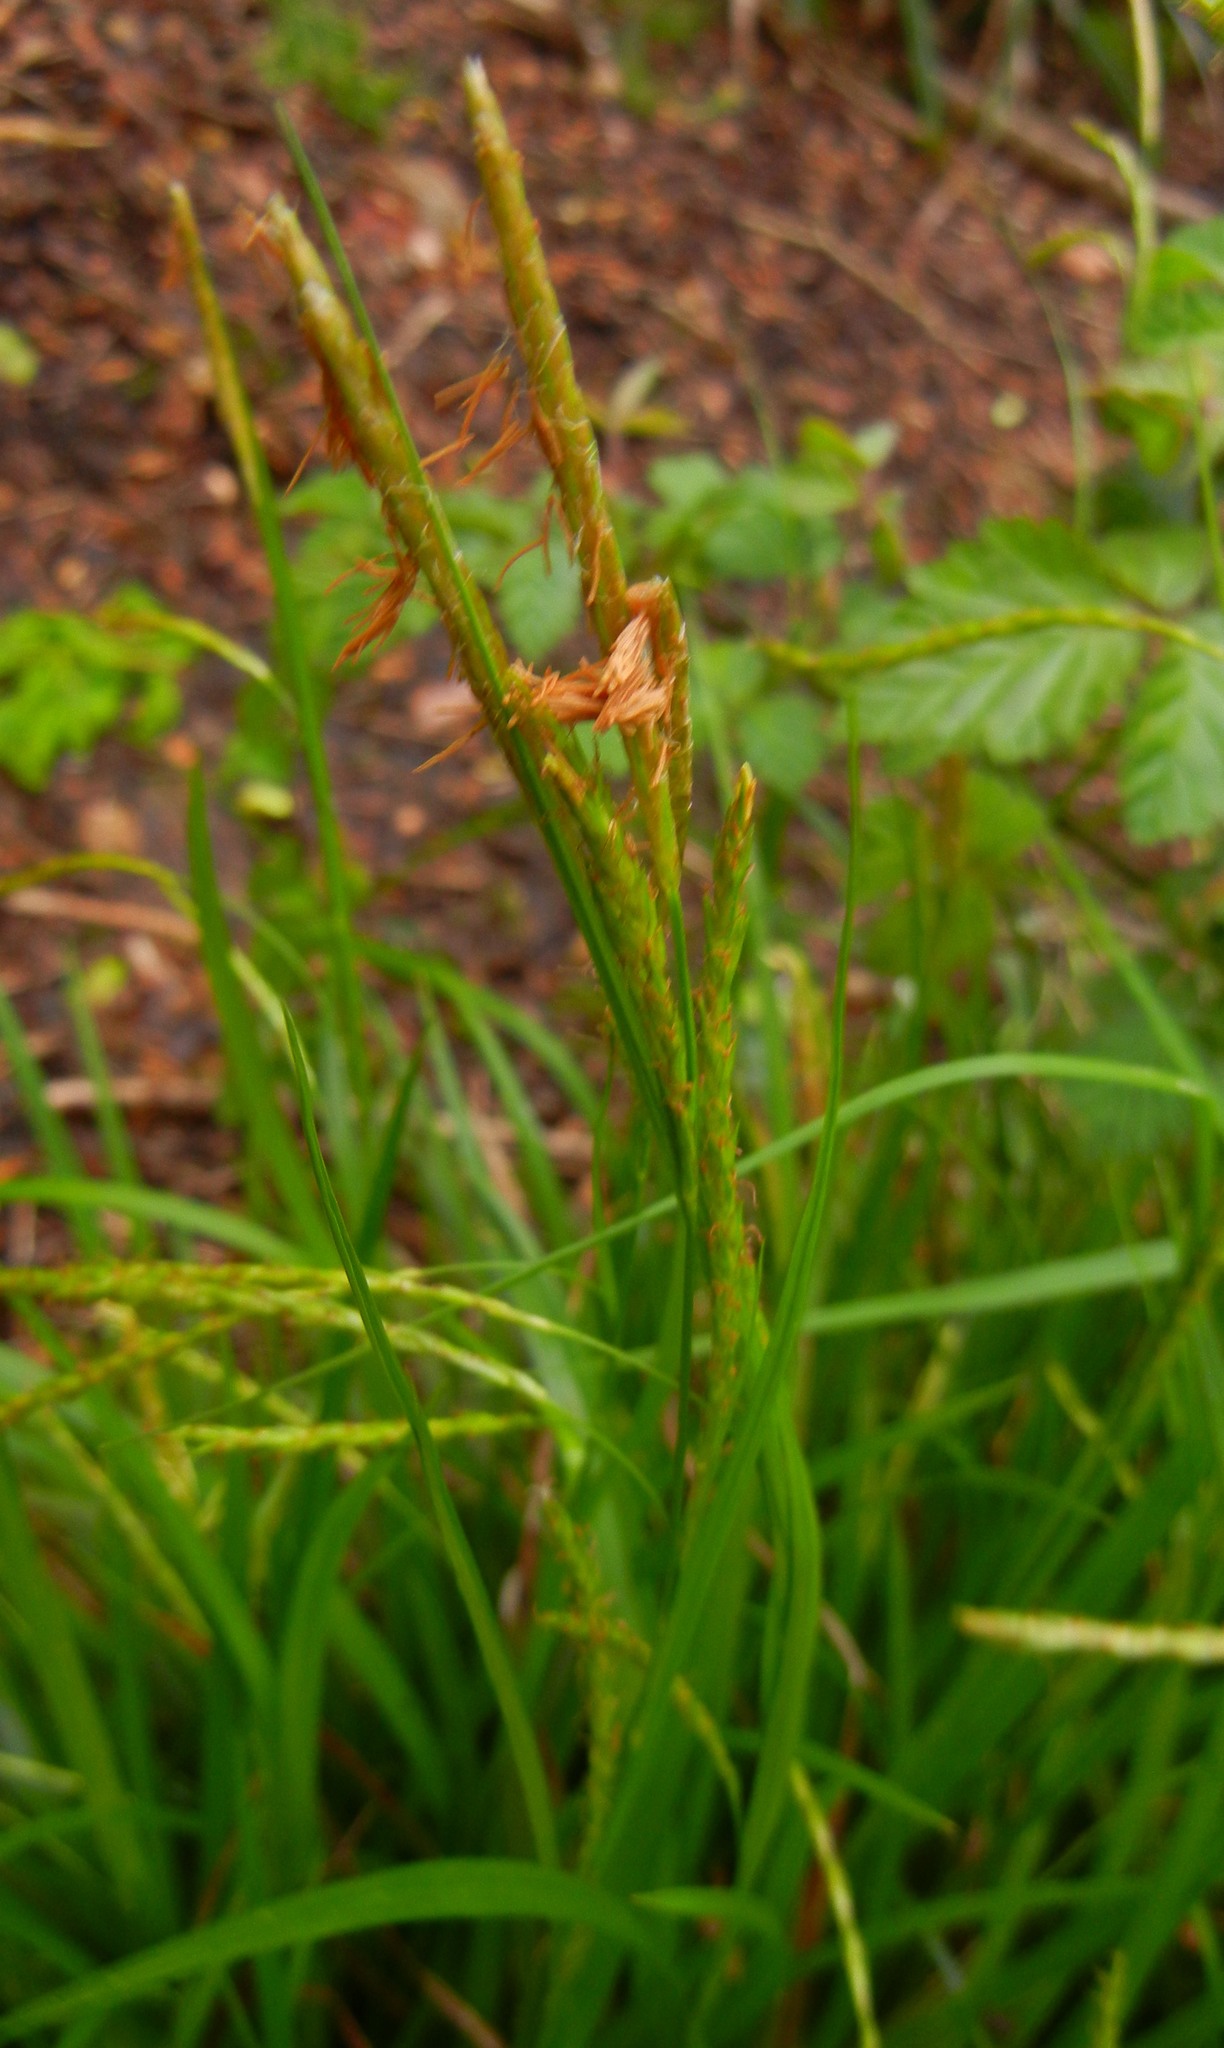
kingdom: Plantae
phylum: Tracheophyta
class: Liliopsida
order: Poales
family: Cyperaceae
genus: Carex
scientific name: Carex sylvatica
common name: Wood-sedge
